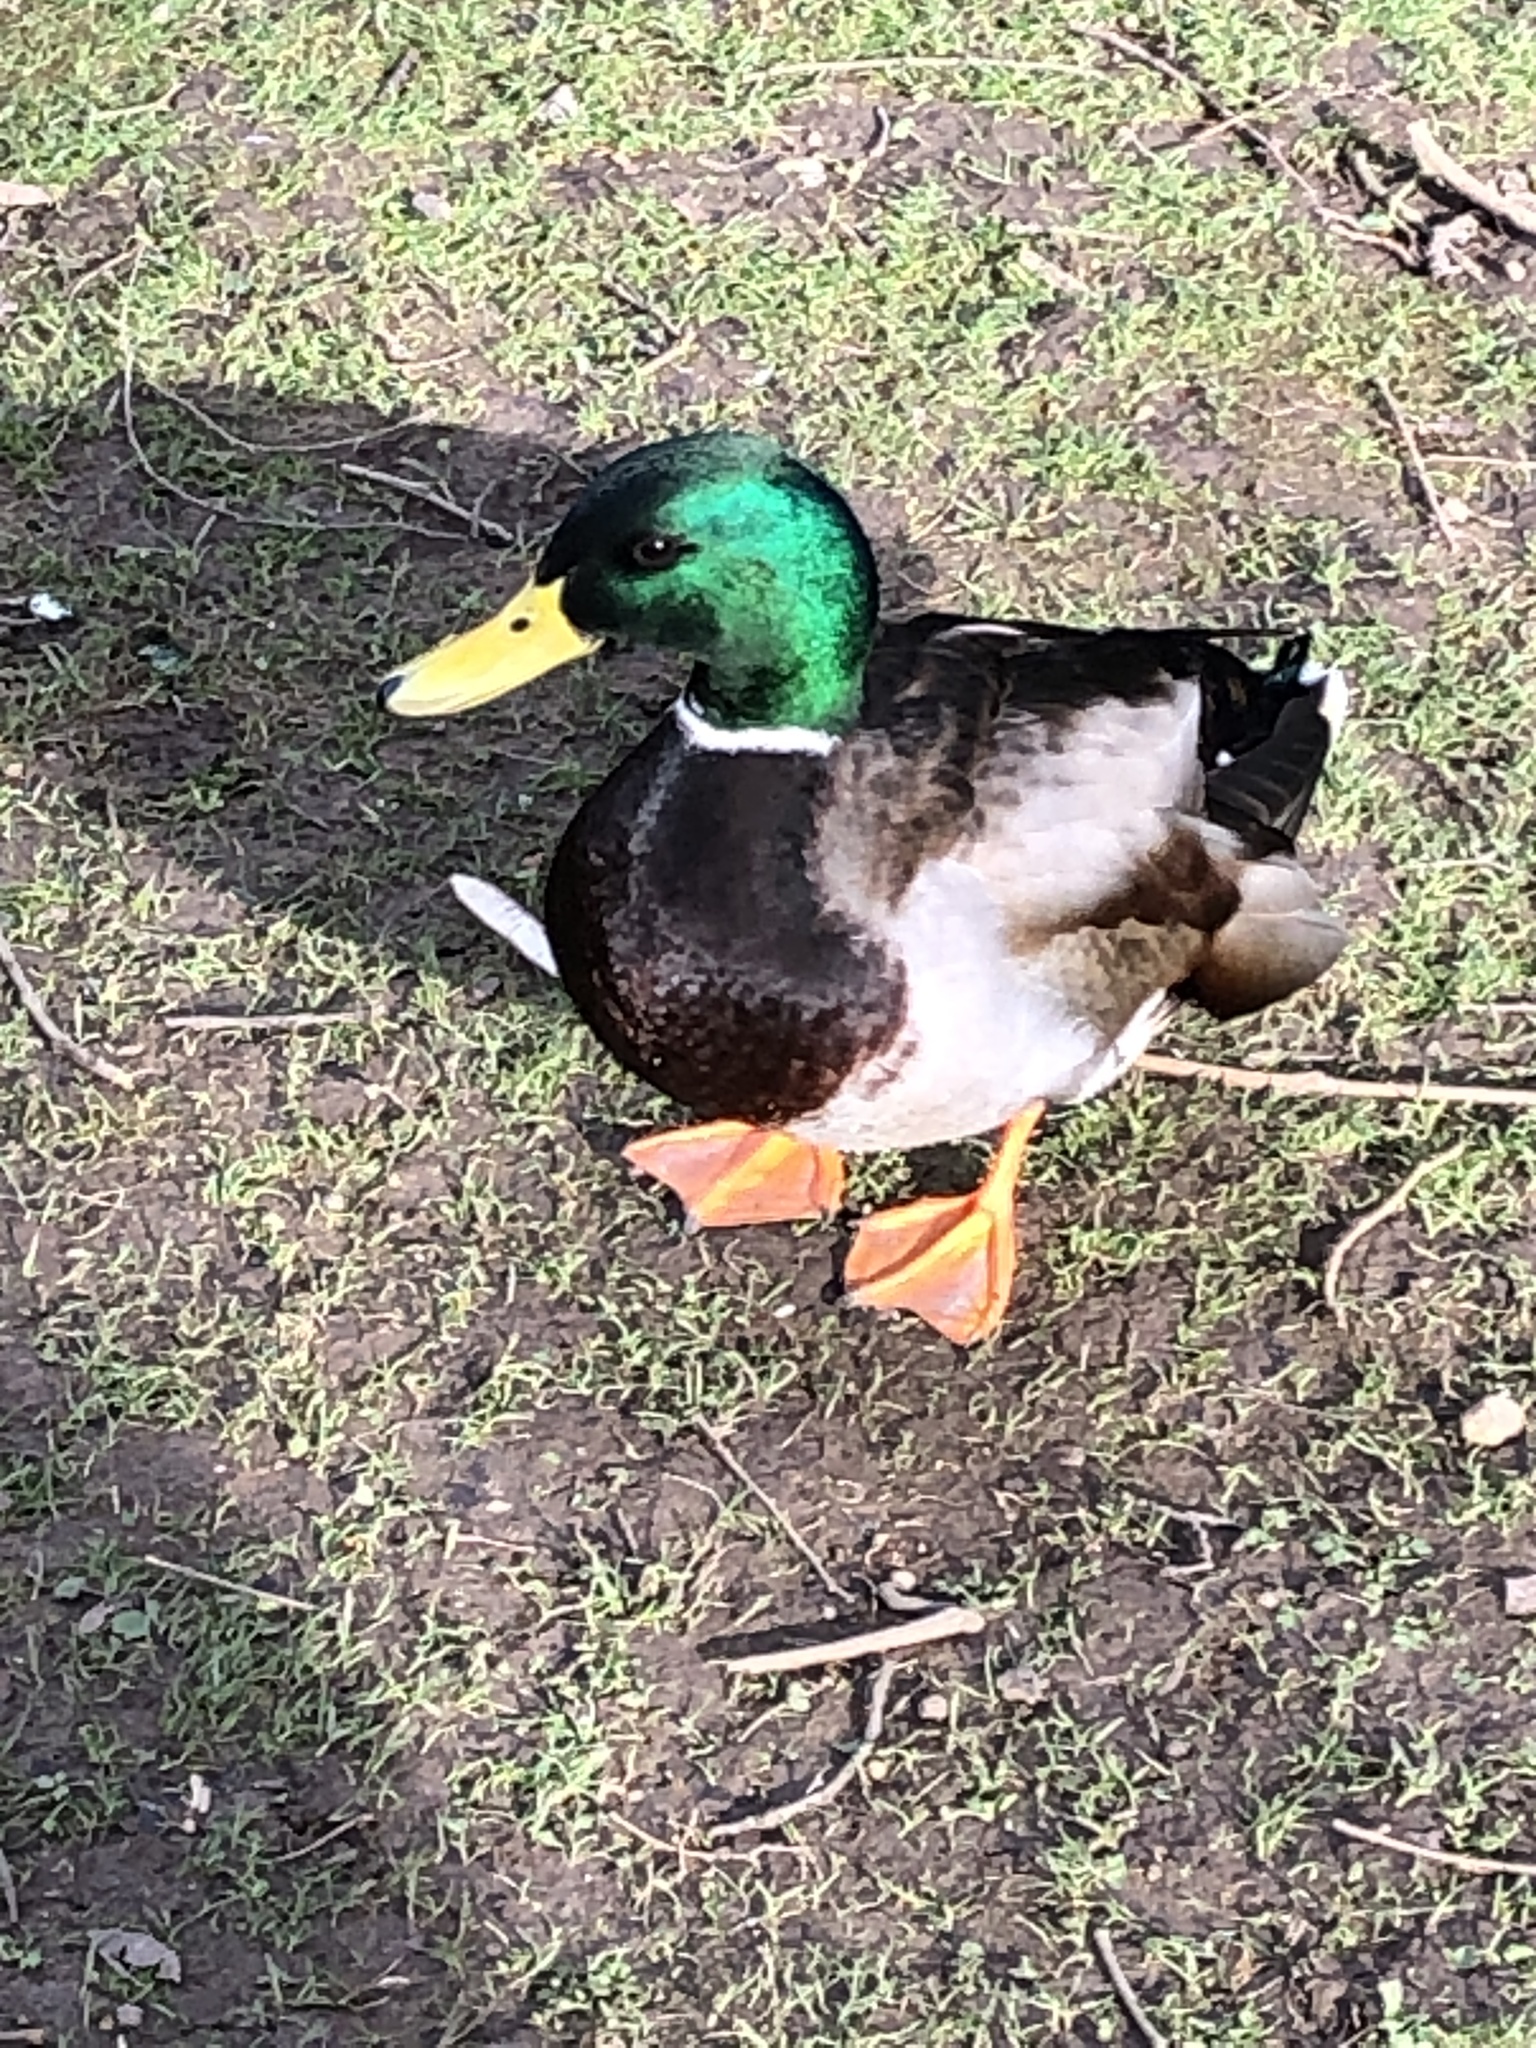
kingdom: Animalia
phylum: Chordata
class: Aves
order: Anseriformes
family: Anatidae
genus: Anas
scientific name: Anas platyrhynchos
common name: Mallard
